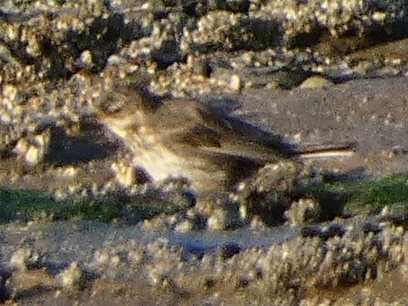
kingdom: Animalia
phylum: Chordata
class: Aves
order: Passeriformes
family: Motacillidae
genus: Anthus
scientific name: Anthus petrosus
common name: Eurasian rock pipit
